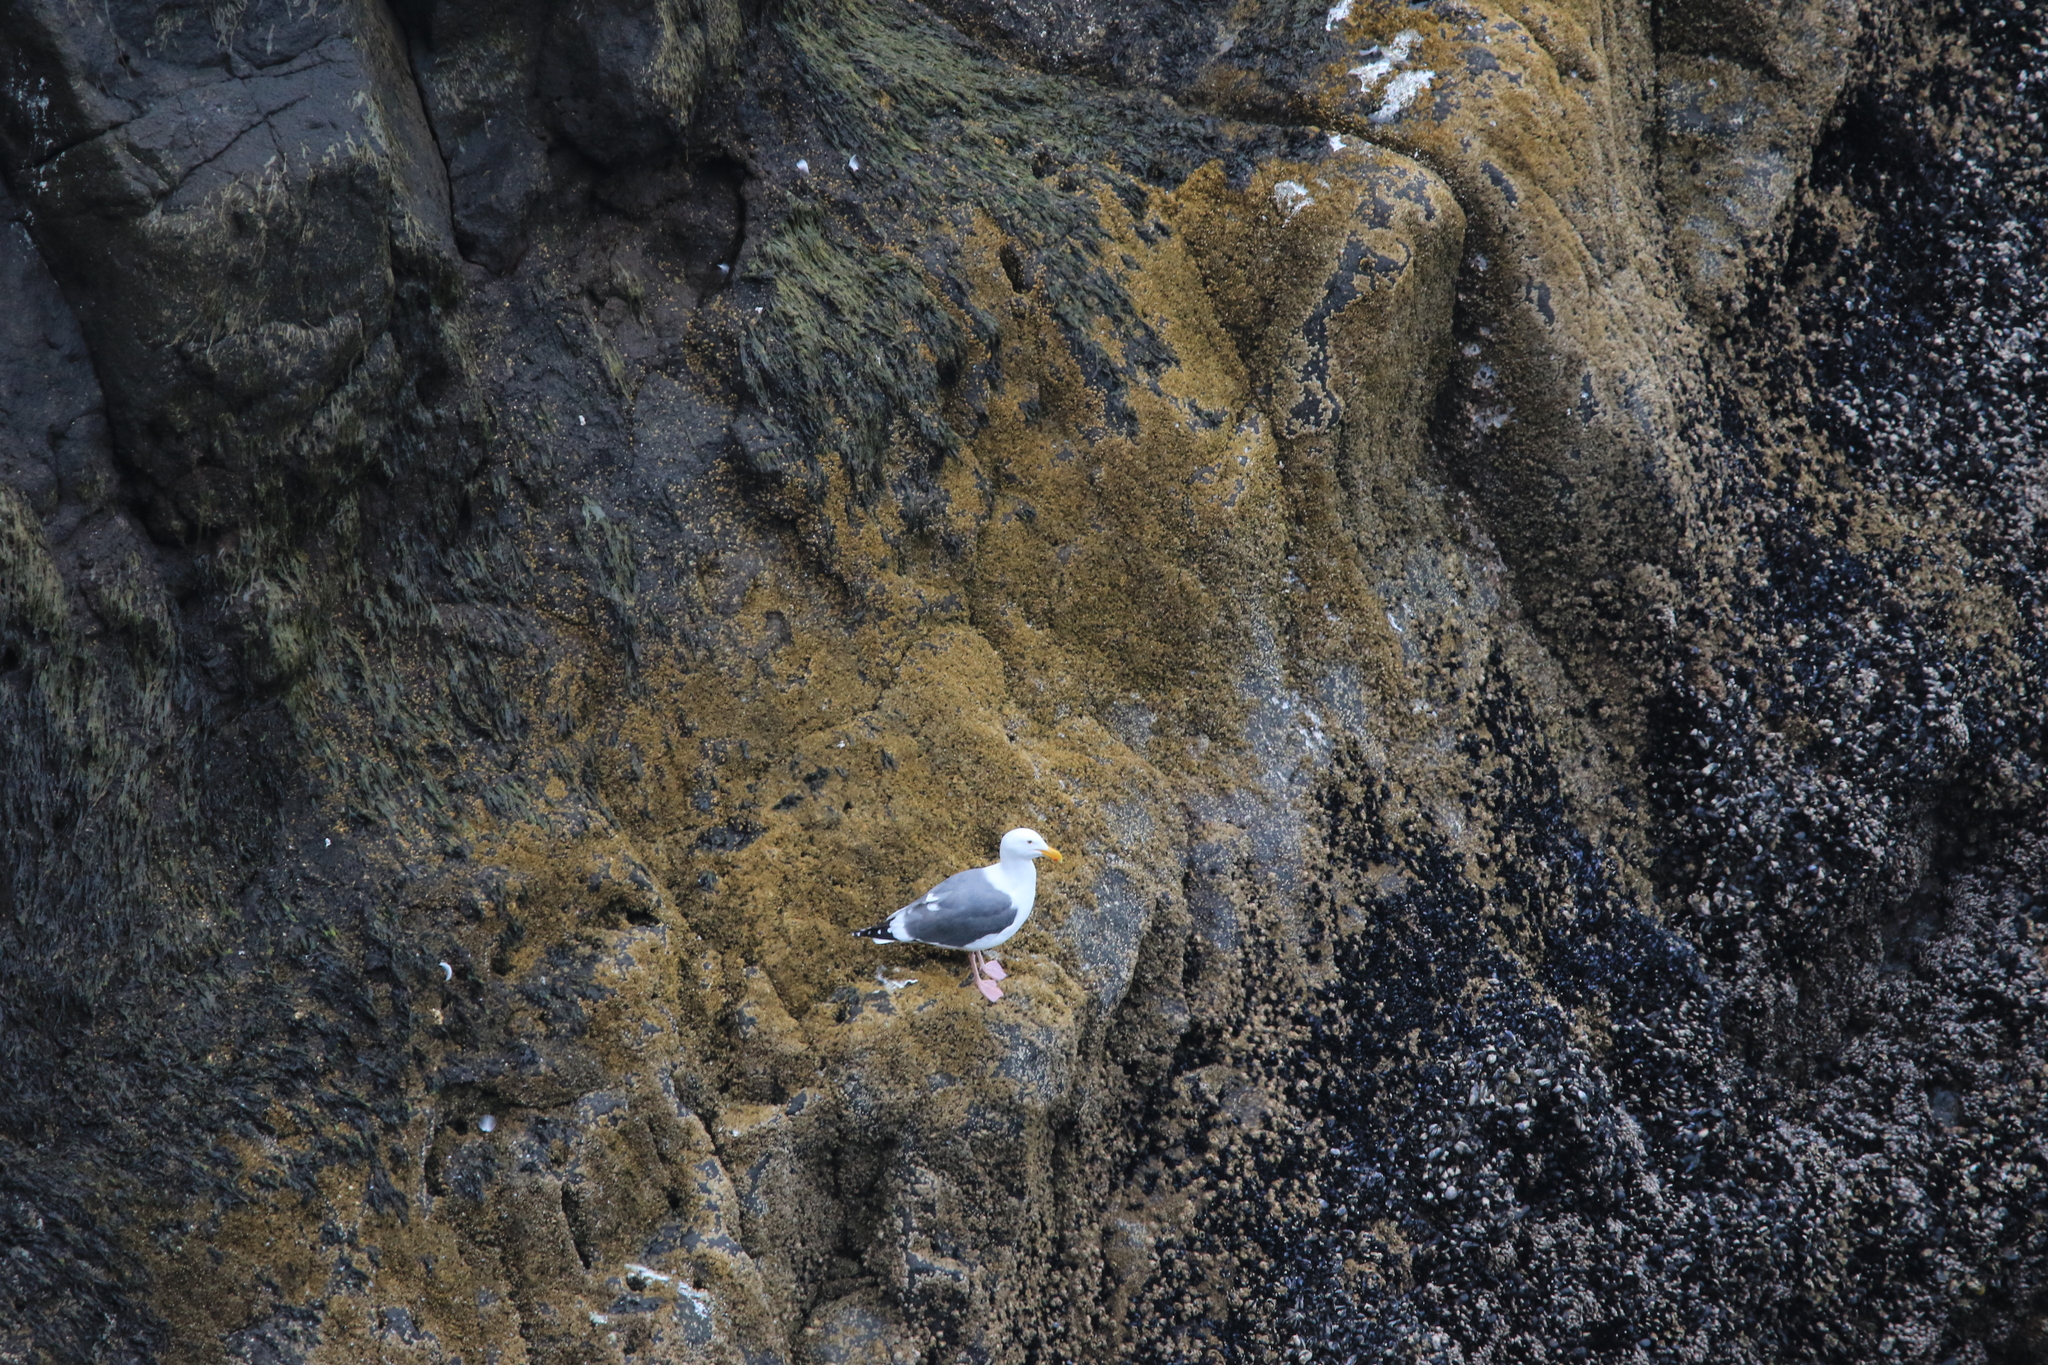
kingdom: Animalia
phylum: Chordata
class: Aves
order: Charadriiformes
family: Laridae
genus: Larus
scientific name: Larus occidentalis
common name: Western gull
